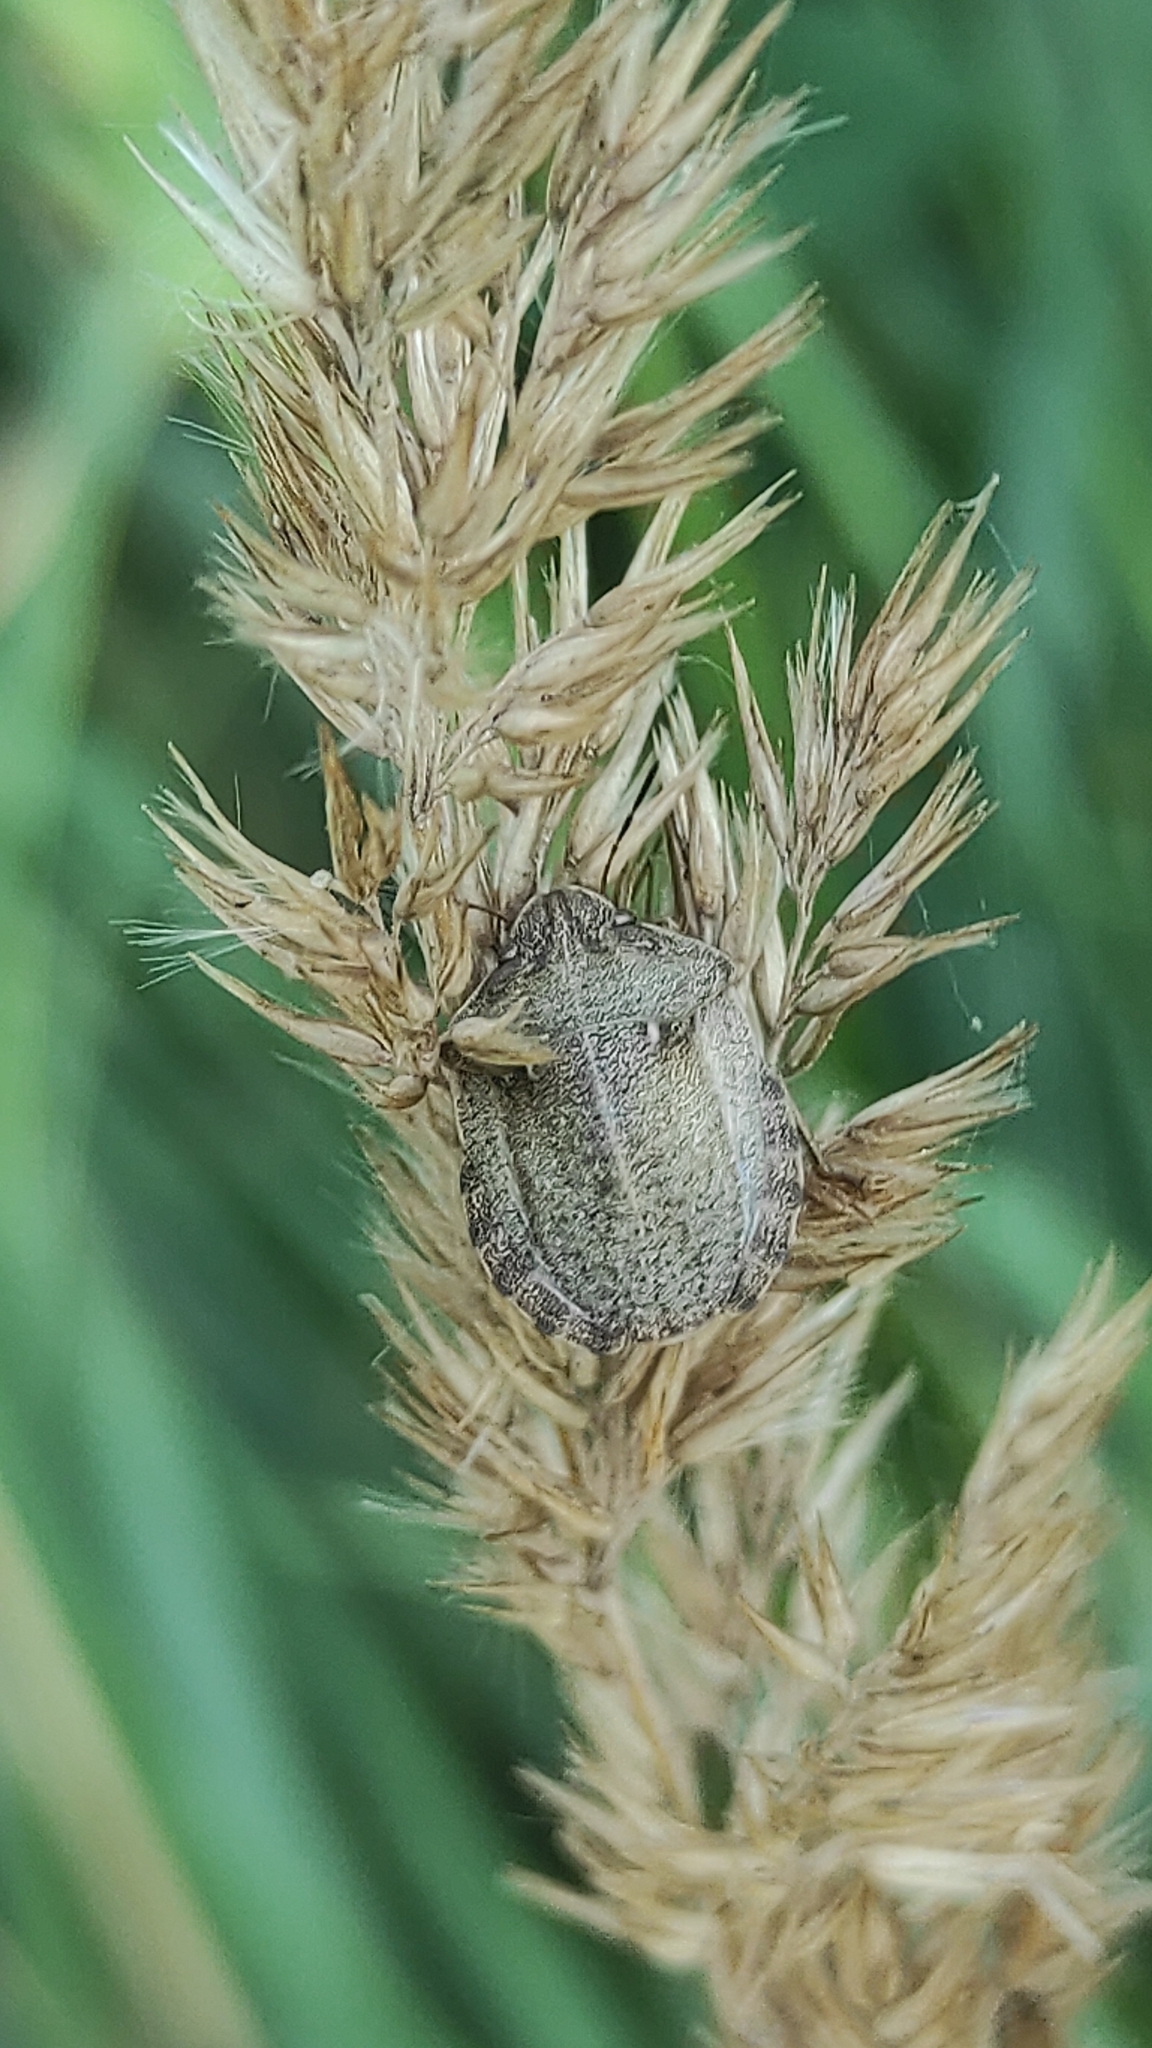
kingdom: Animalia
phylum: Arthropoda
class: Insecta
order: Hemiptera
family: Scutelleridae
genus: Eurygaster
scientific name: Eurygaster testudinaria
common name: Tortoise bug
